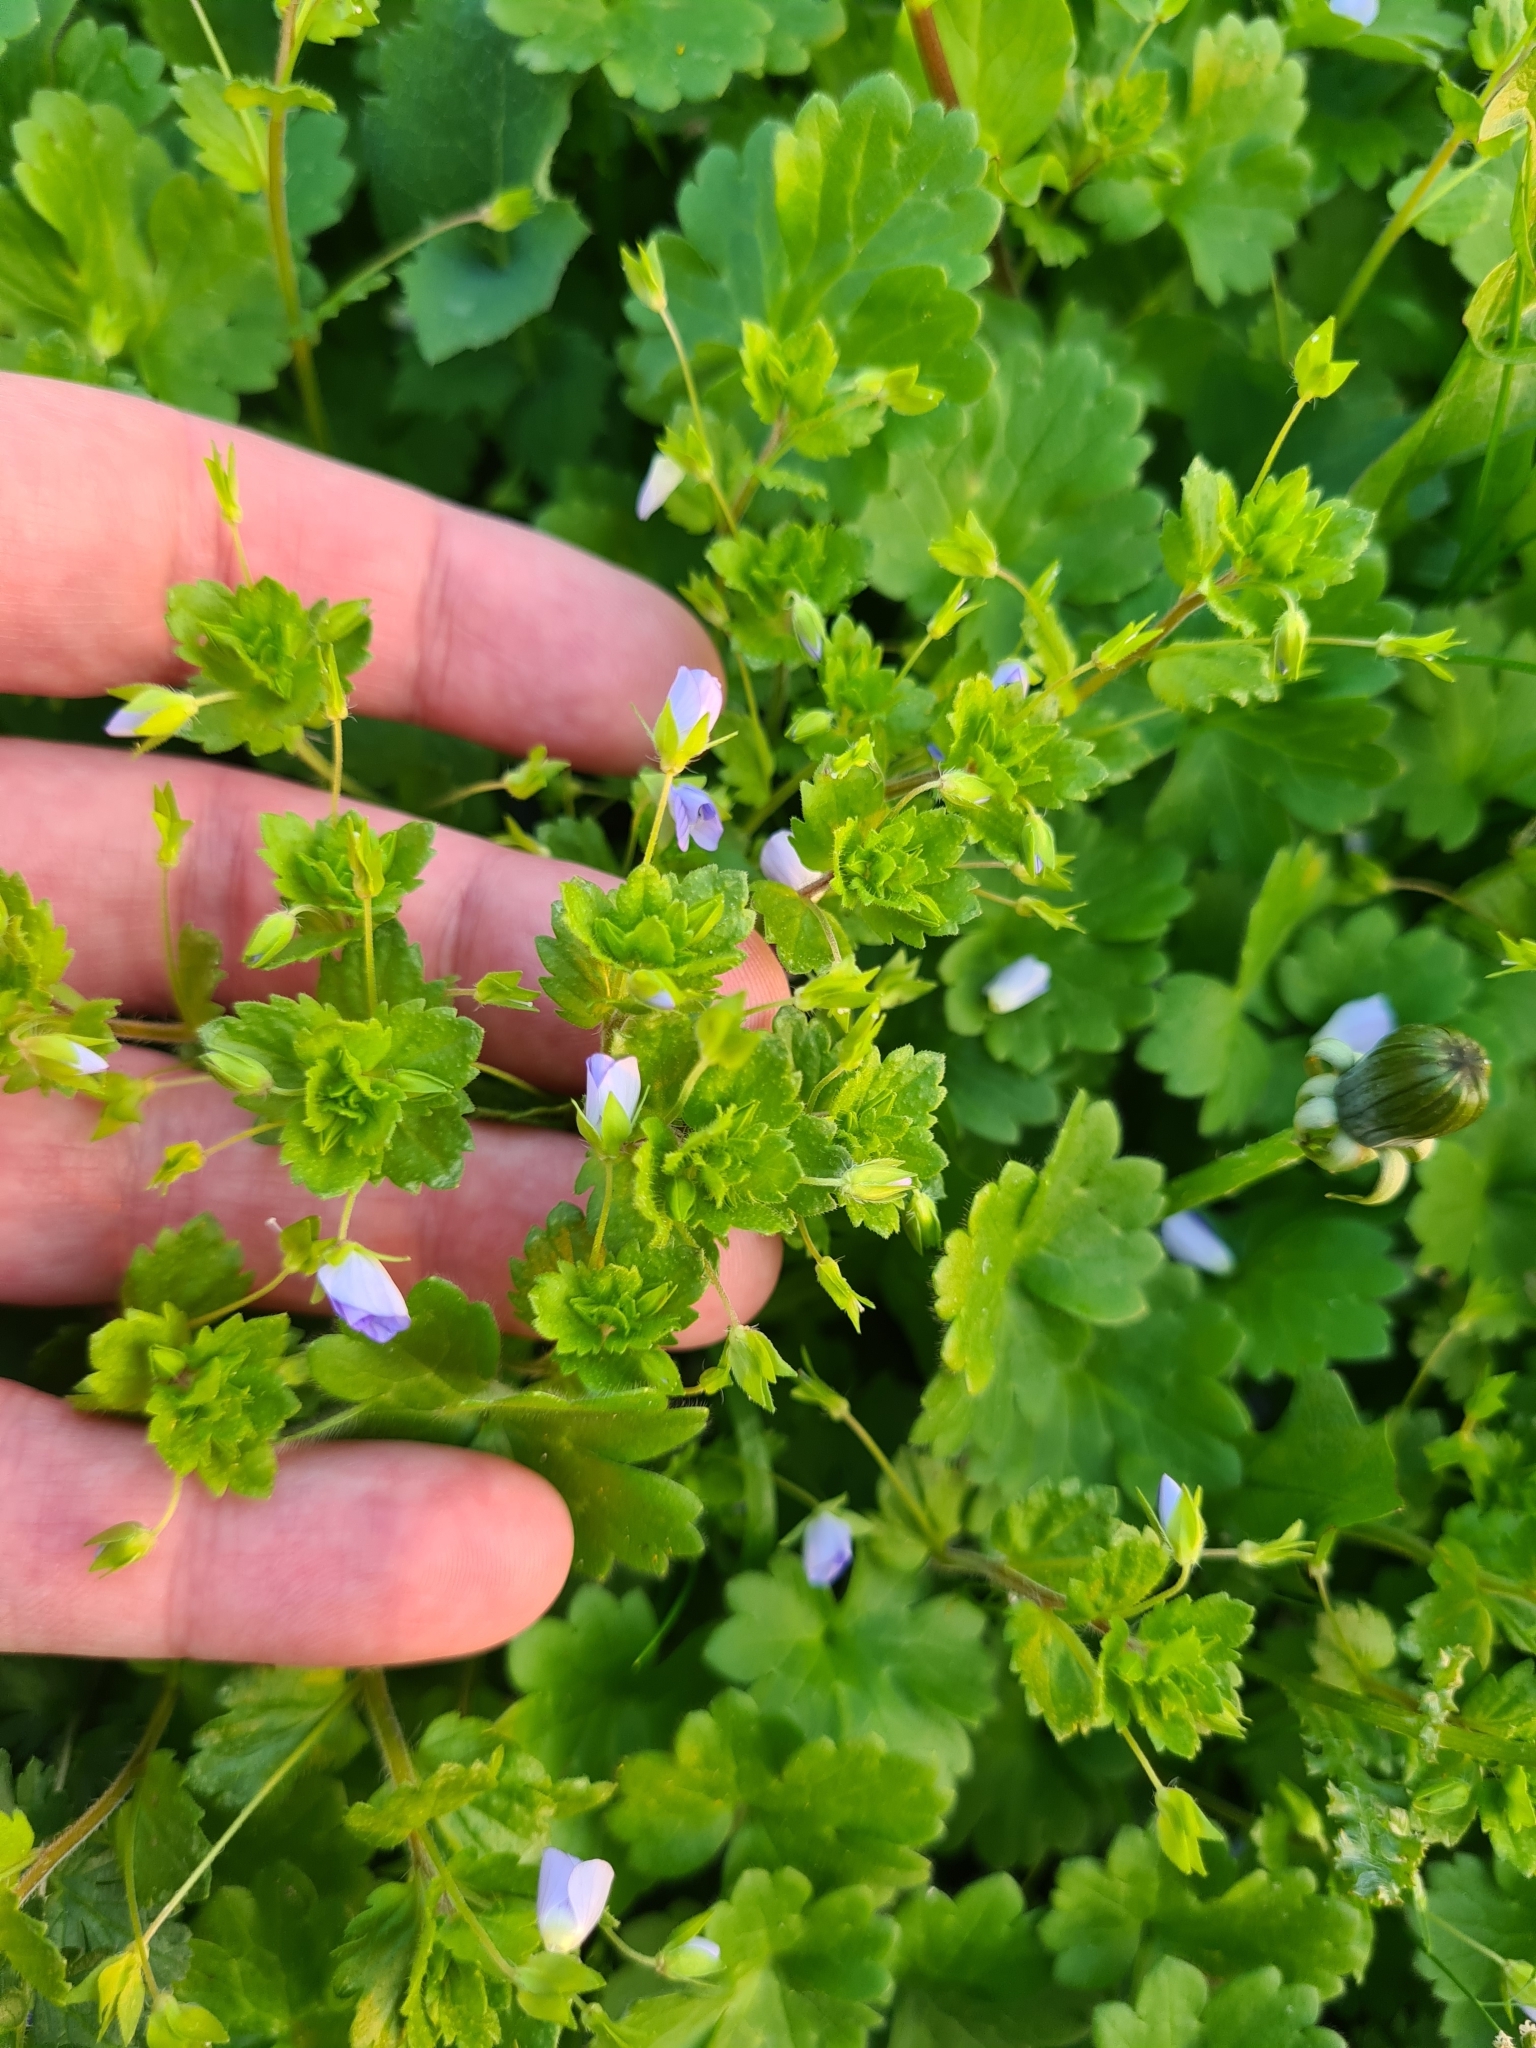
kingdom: Plantae
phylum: Tracheophyta
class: Magnoliopsida
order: Lamiales
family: Plantaginaceae
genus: Veronica
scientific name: Veronica persica
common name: Common field-speedwell
